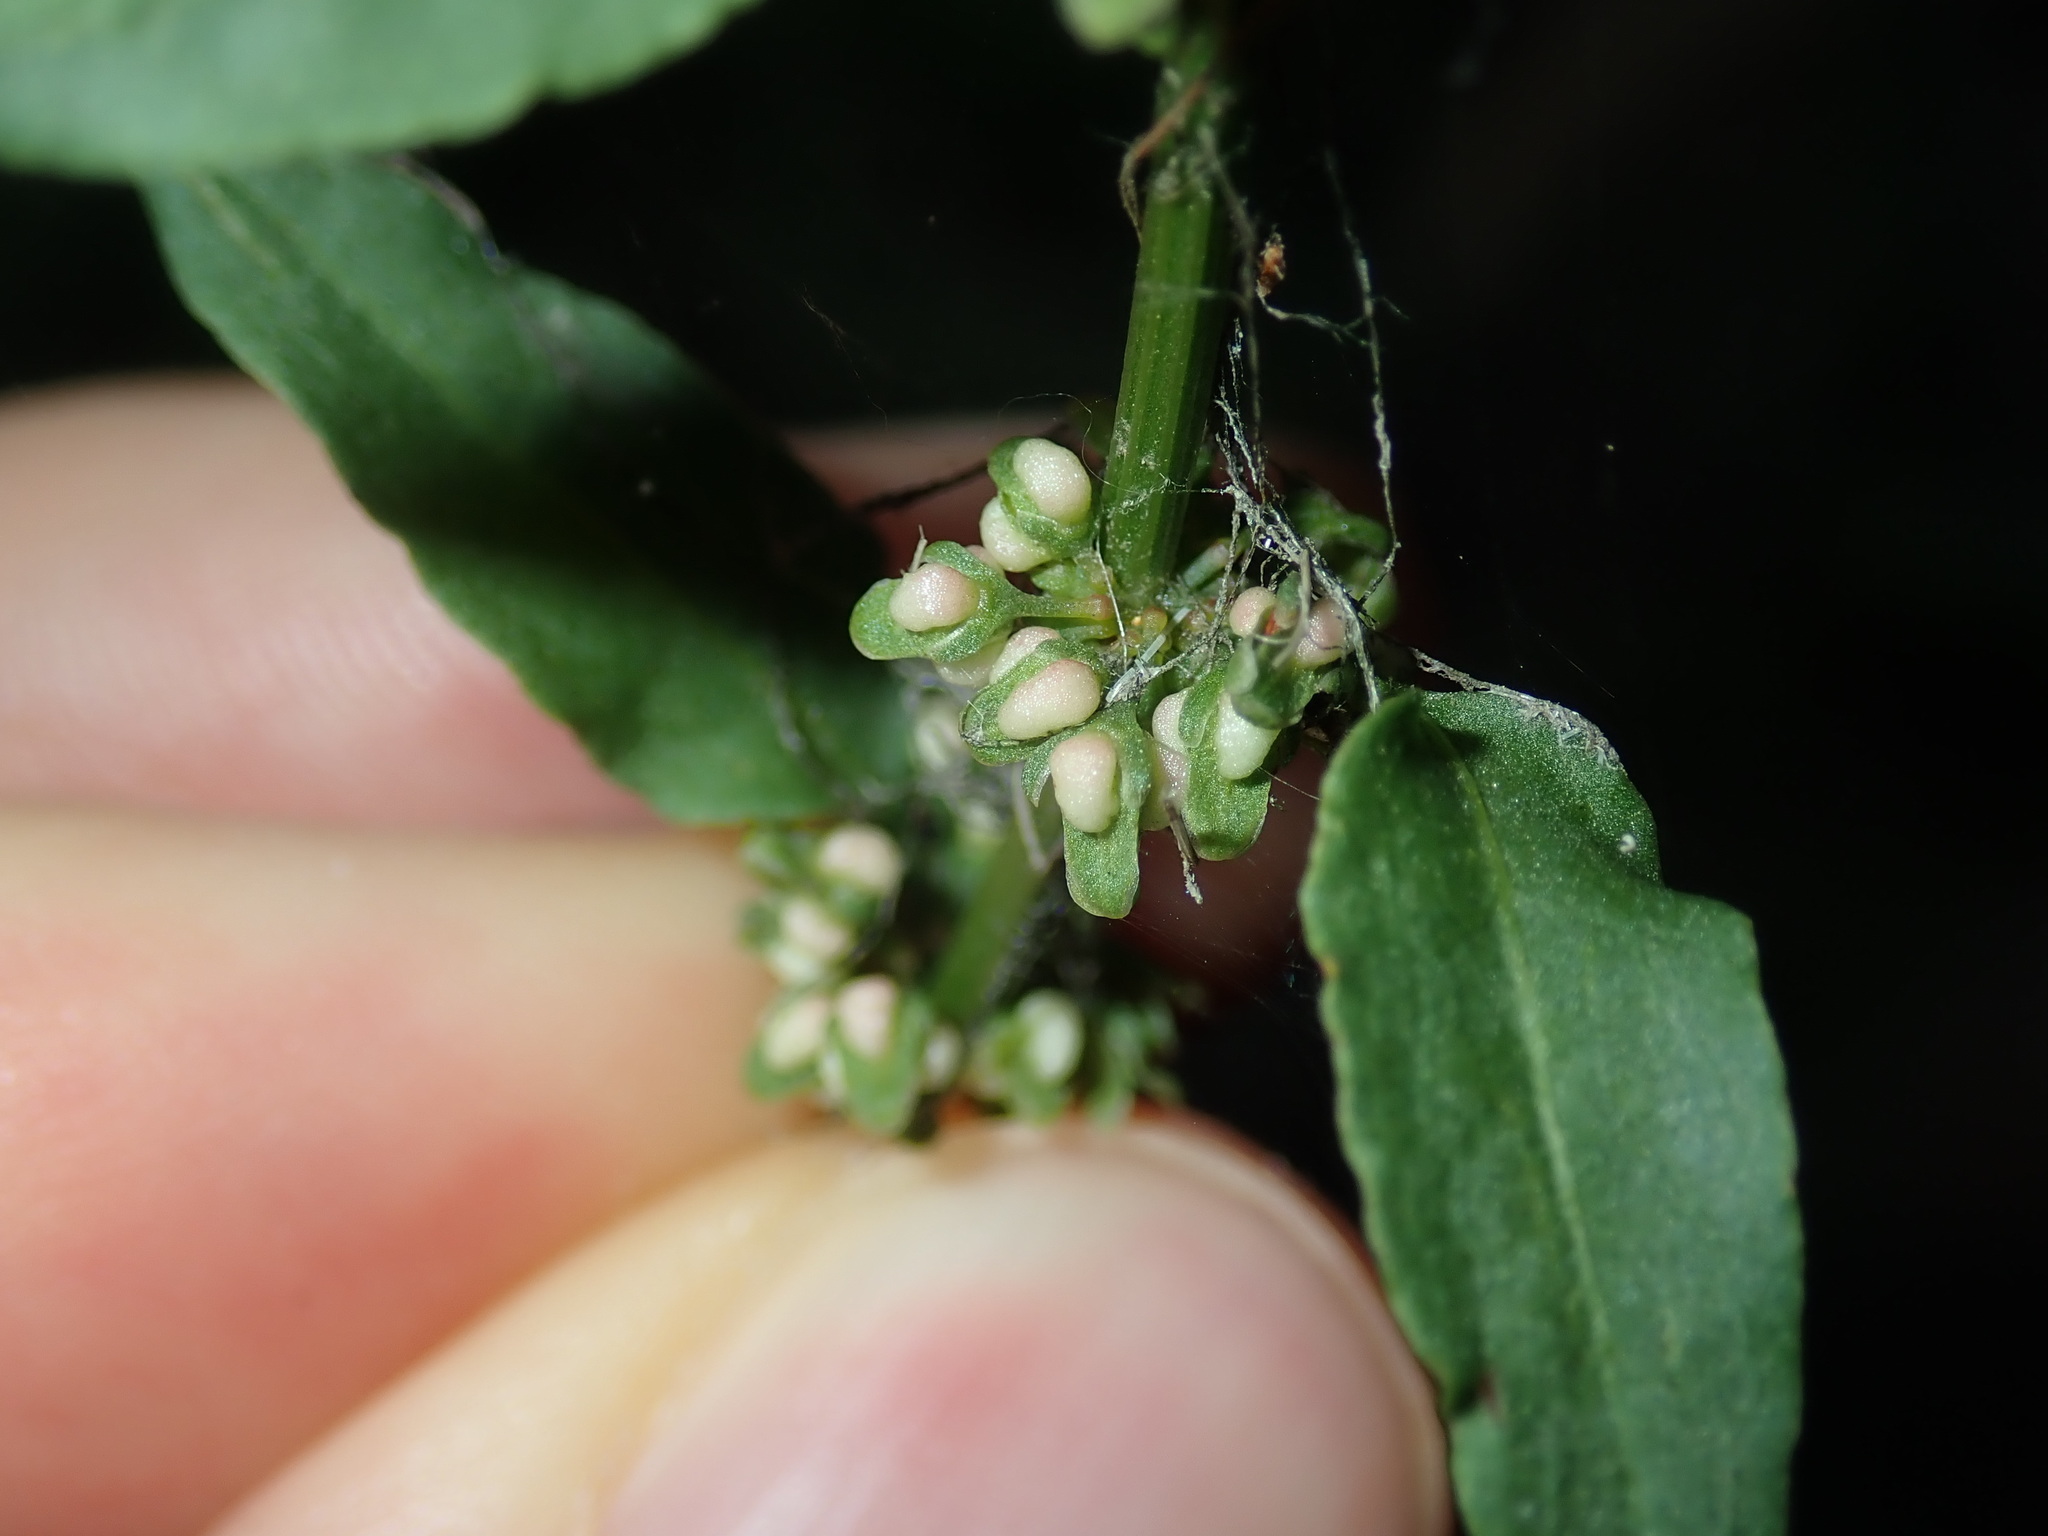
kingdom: Plantae
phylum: Tracheophyta
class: Magnoliopsida
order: Caryophyllales
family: Polygonaceae
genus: Rumex
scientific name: Rumex conglomeratus
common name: Clustered dock
